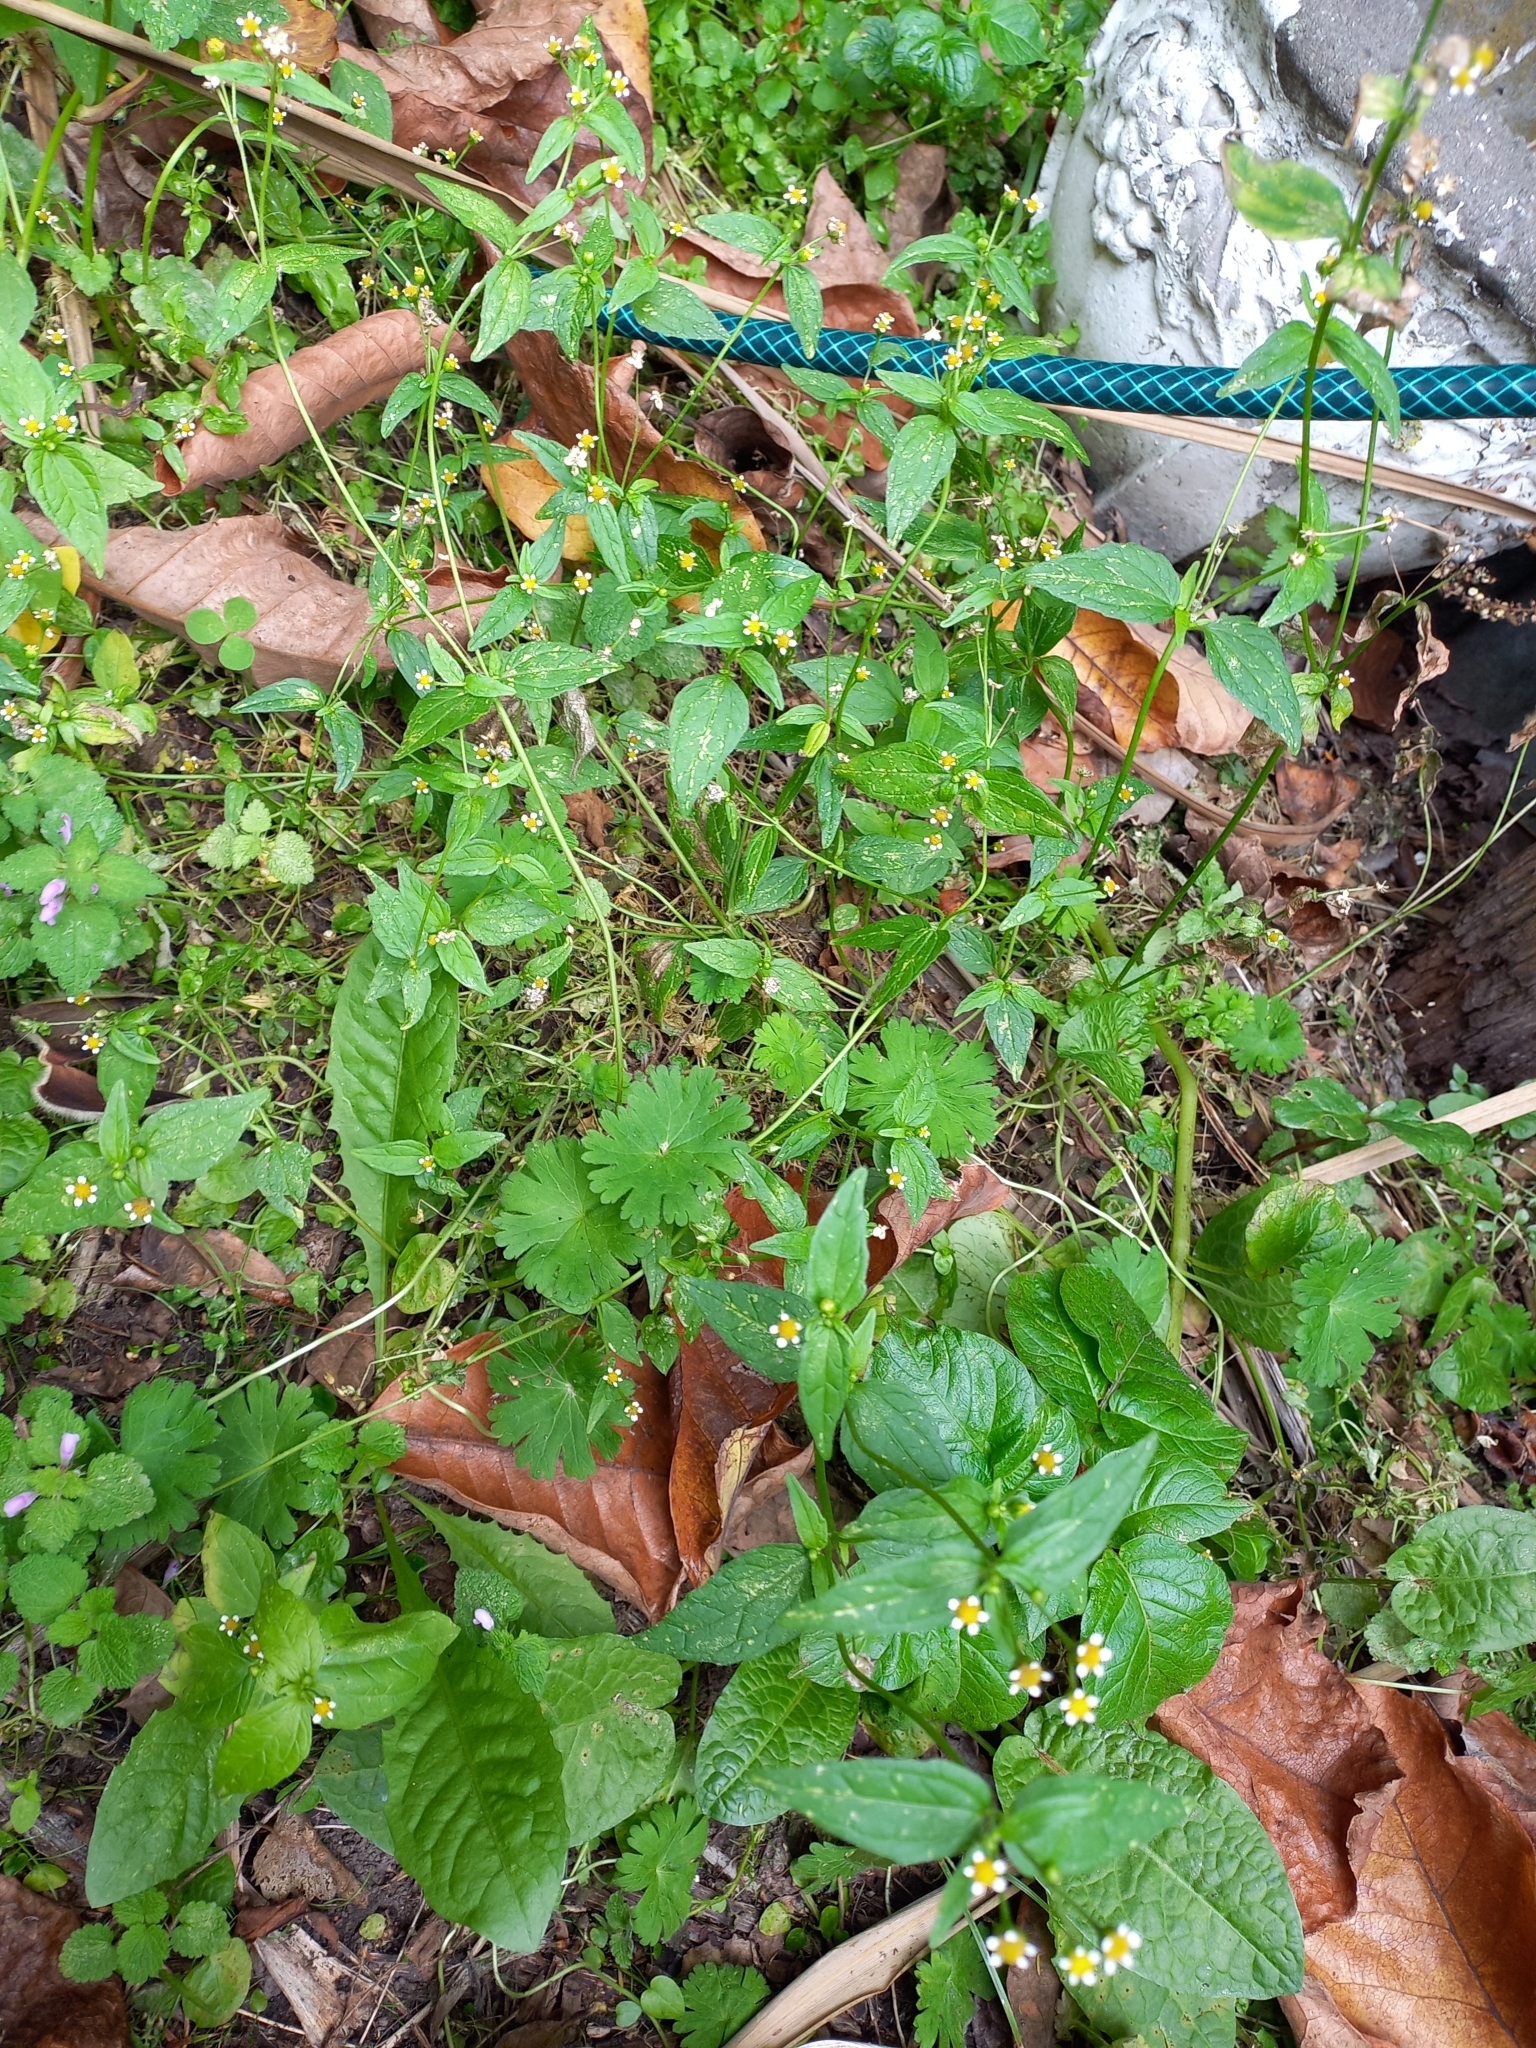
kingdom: Plantae
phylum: Tracheophyta
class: Magnoliopsida
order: Asterales
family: Asteraceae
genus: Galinsoga
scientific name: Galinsoga parviflora
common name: Gallant soldier
